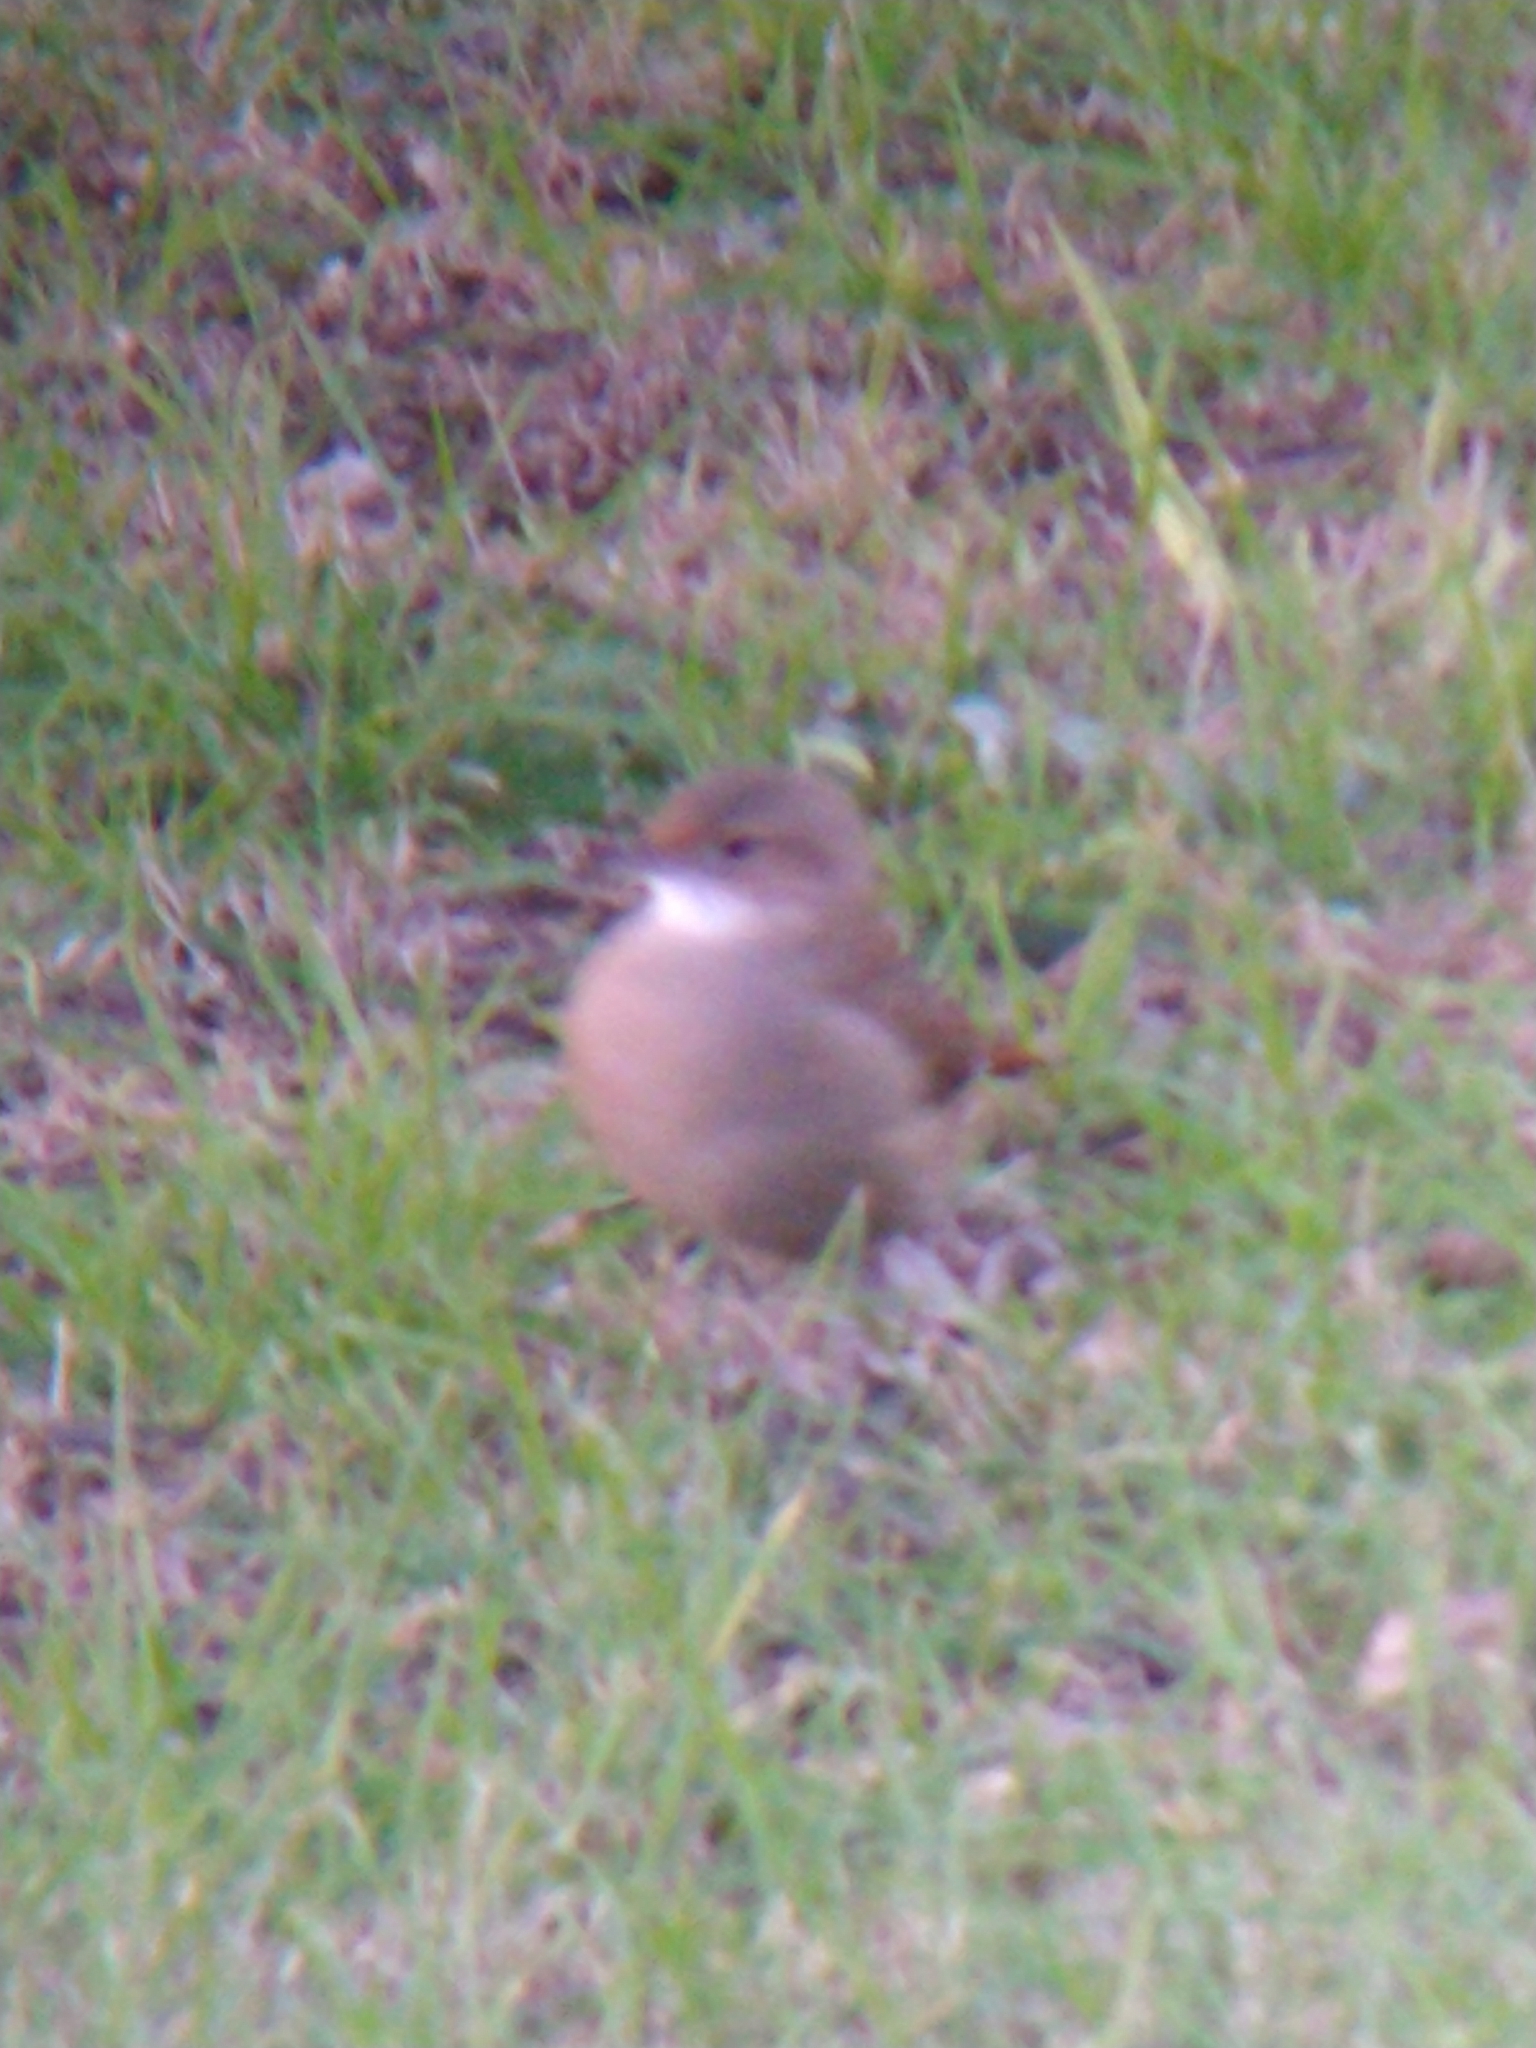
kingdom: Animalia
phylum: Chordata
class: Aves
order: Passeriformes
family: Furnariidae
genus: Furnarius
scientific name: Furnarius rufus
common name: Rufous hornero
